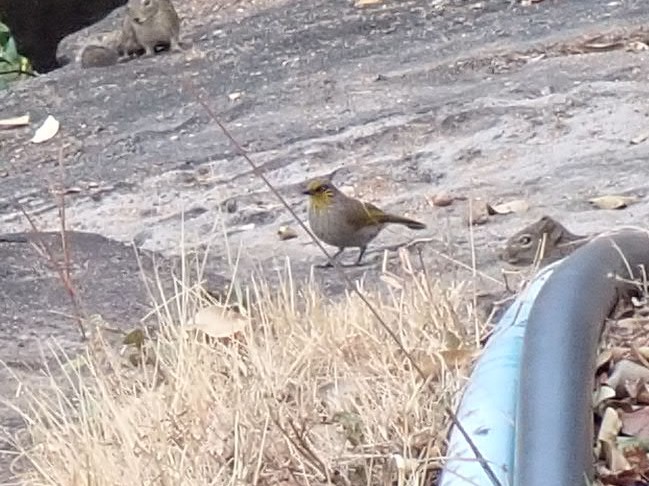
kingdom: Animalia
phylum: Chordata
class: Aves
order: Passeriformes
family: Pycnonotidae
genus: Pycnonotus
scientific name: Pycnonotus finlaysoni
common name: Stripe-throated bulbul
